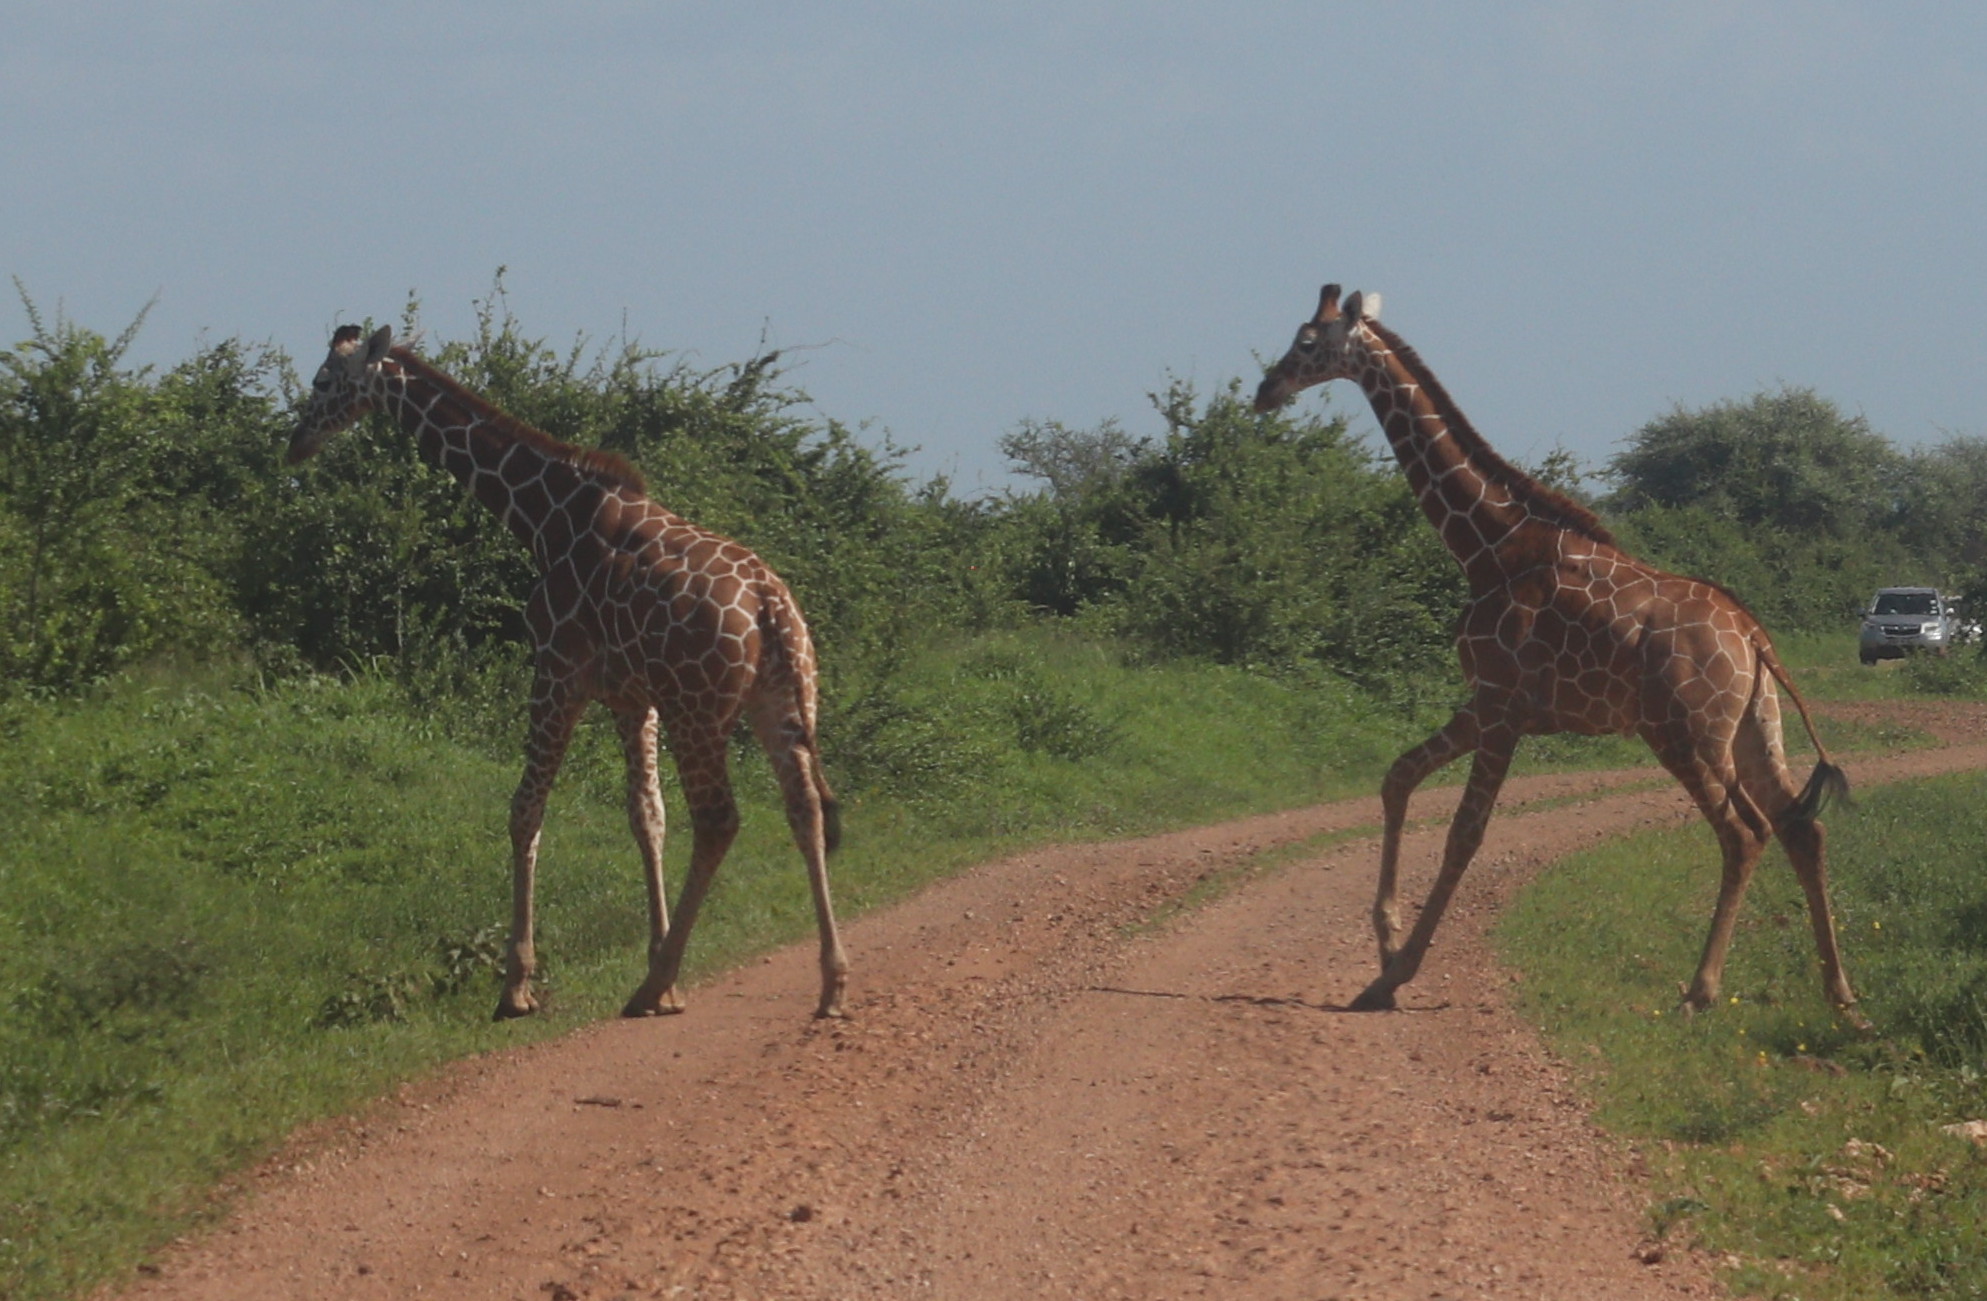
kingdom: Animalia
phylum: Chordata
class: Mammalia
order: Artiodactyla
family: Giraffidae
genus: Giraffa
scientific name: Giraffa reticulata
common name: Reticulated giraffe
